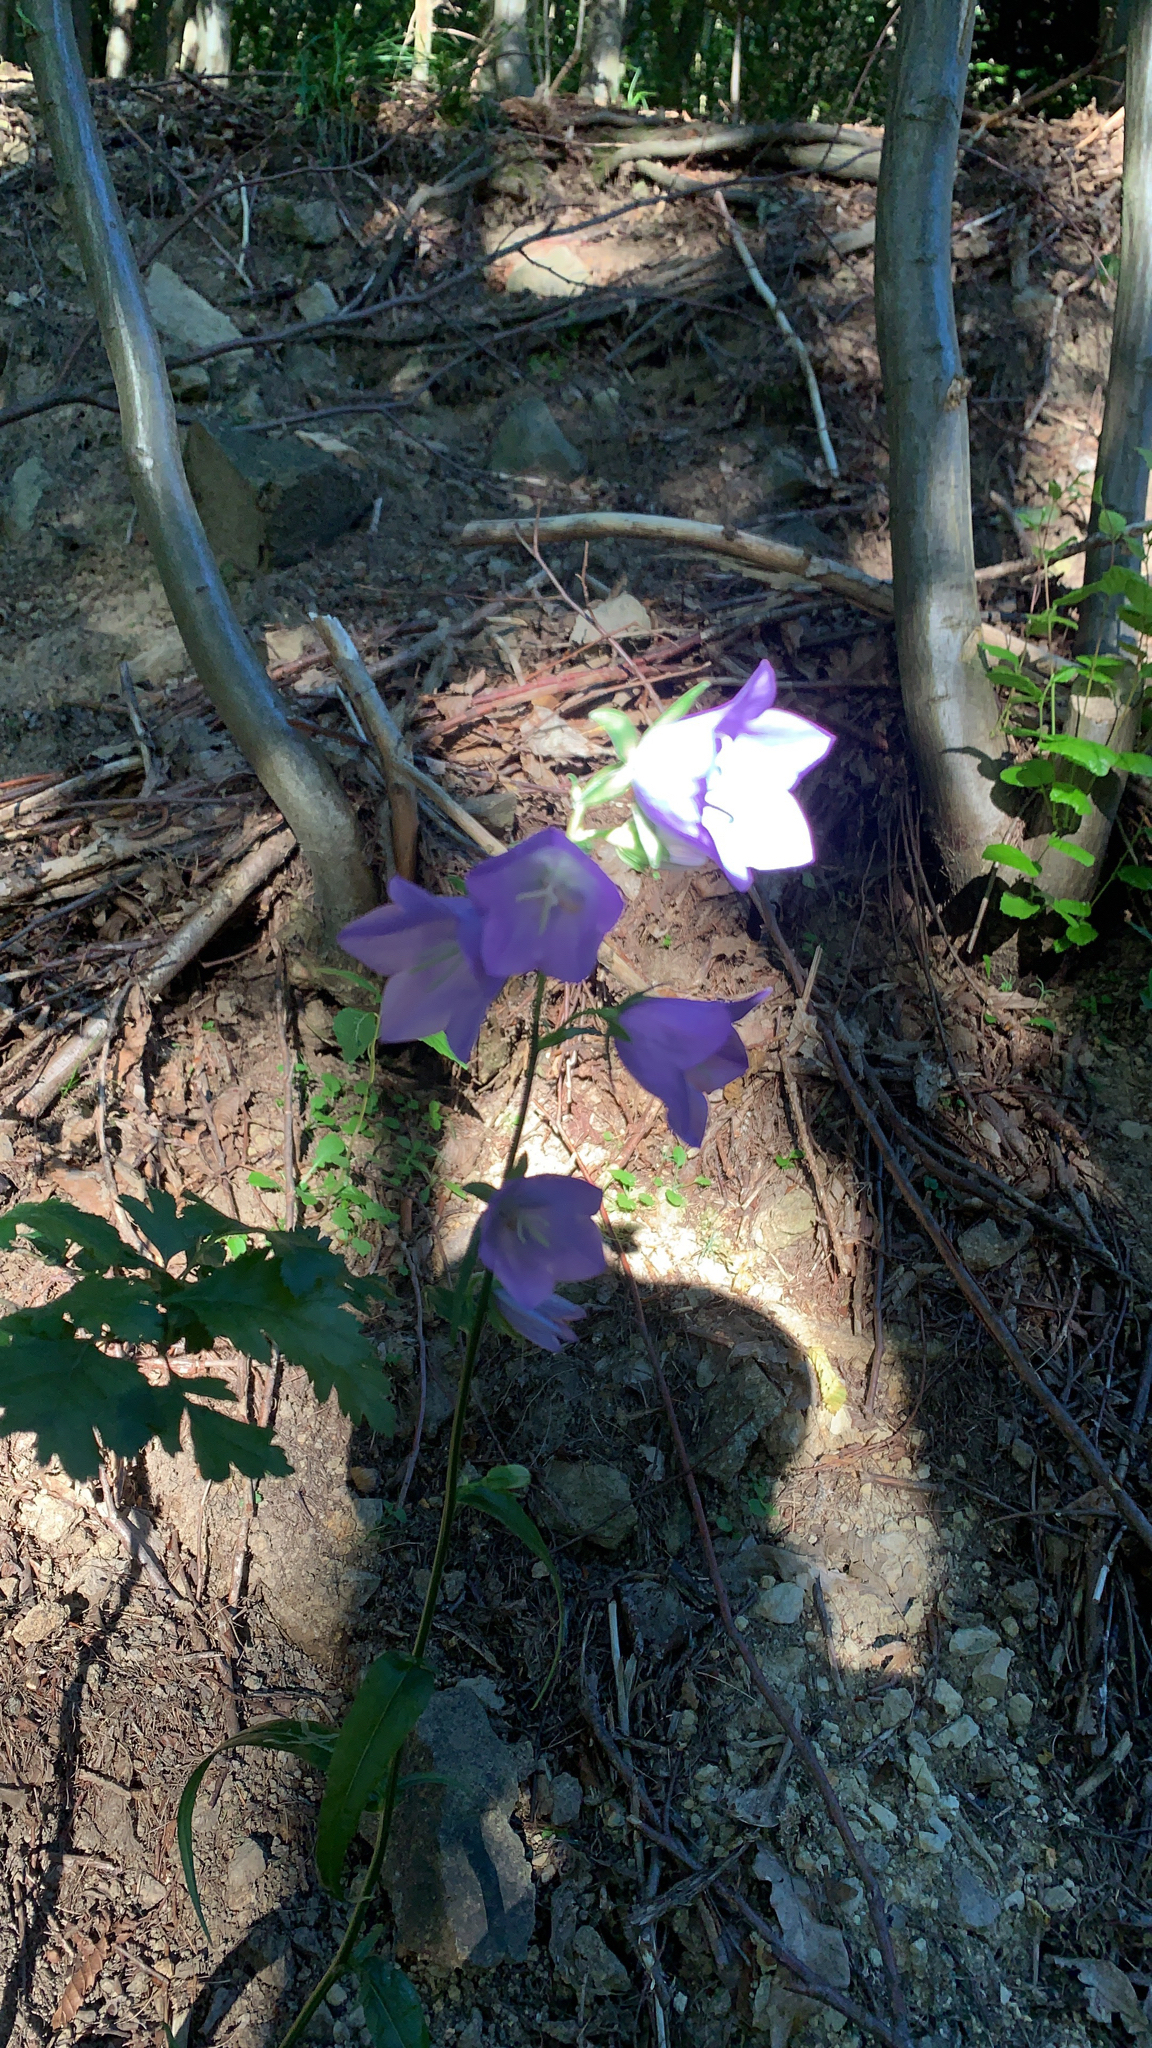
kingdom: Plantae
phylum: Tracheophyta
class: Magnoliopsida
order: Asterales
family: Campanulaceae
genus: Campanula
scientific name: Campanula persicifolia
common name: Peach-leaved bellflower
